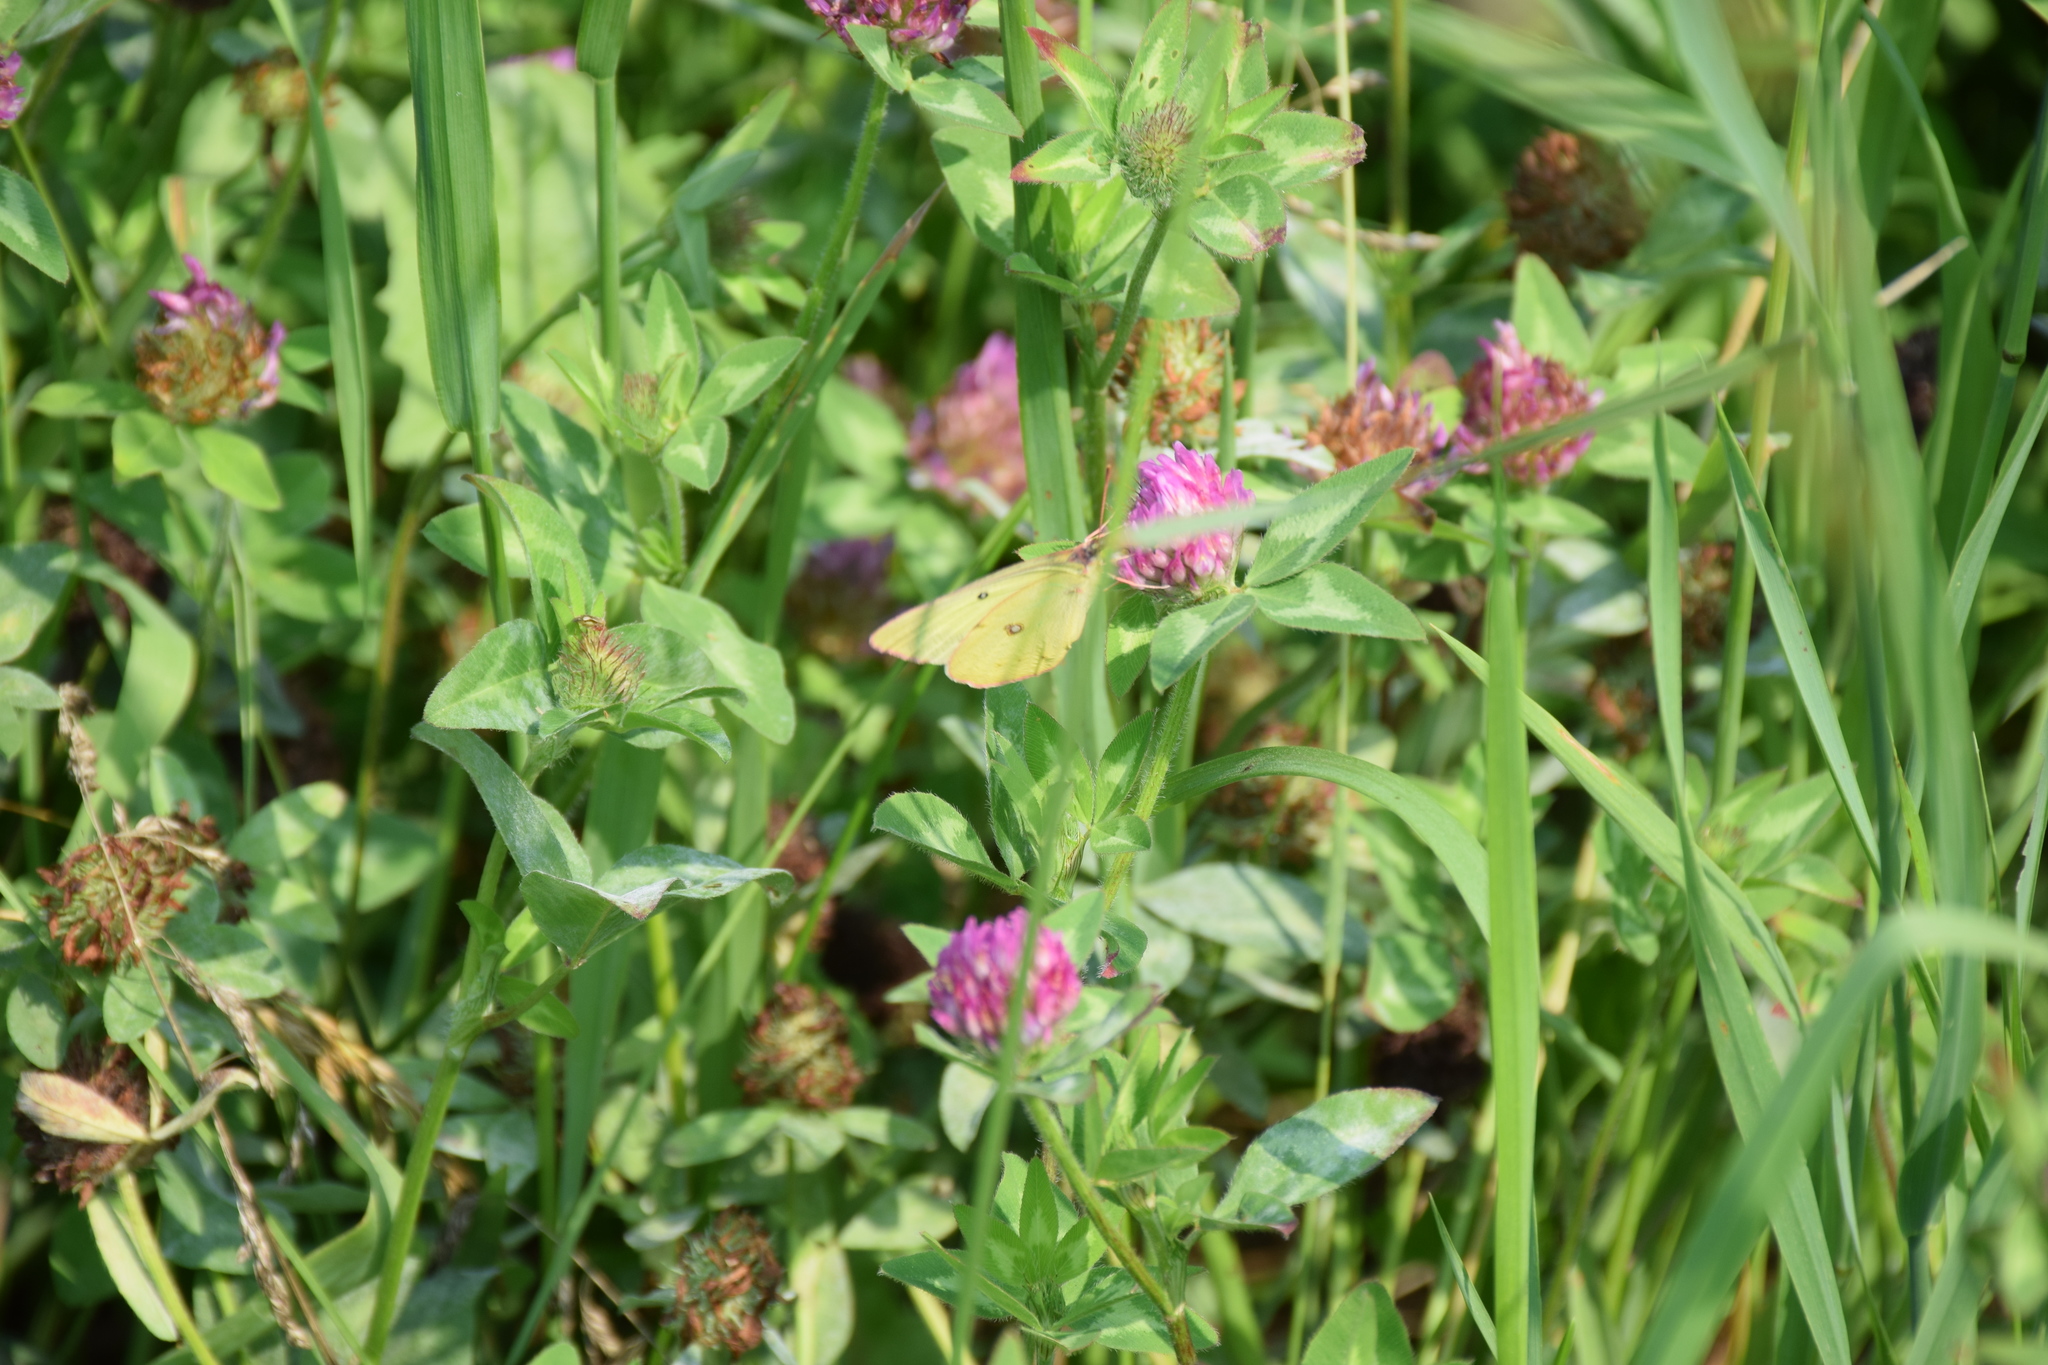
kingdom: Animalia
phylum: Arthropoda
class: Insecta
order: Lepidoptera
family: Pieridae
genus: Colias
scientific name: Colias philodice
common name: Clouded sulphur
